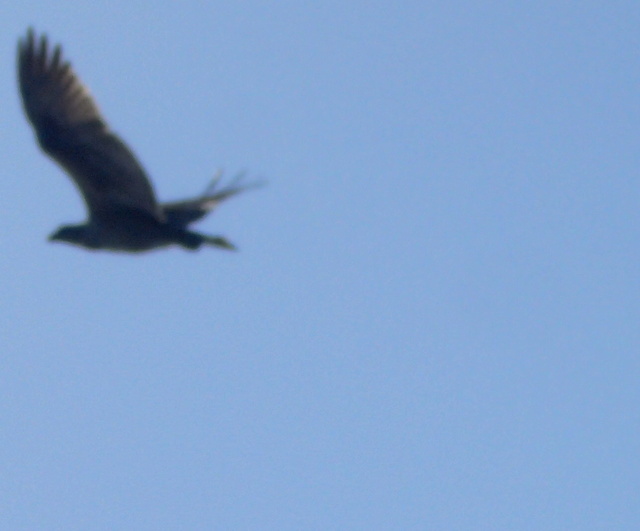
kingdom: Animalia
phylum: Chordata
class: Aves
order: Accipitriformes
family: Pandionidae
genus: Pandion
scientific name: Pandion haliaetus
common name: Osprey
